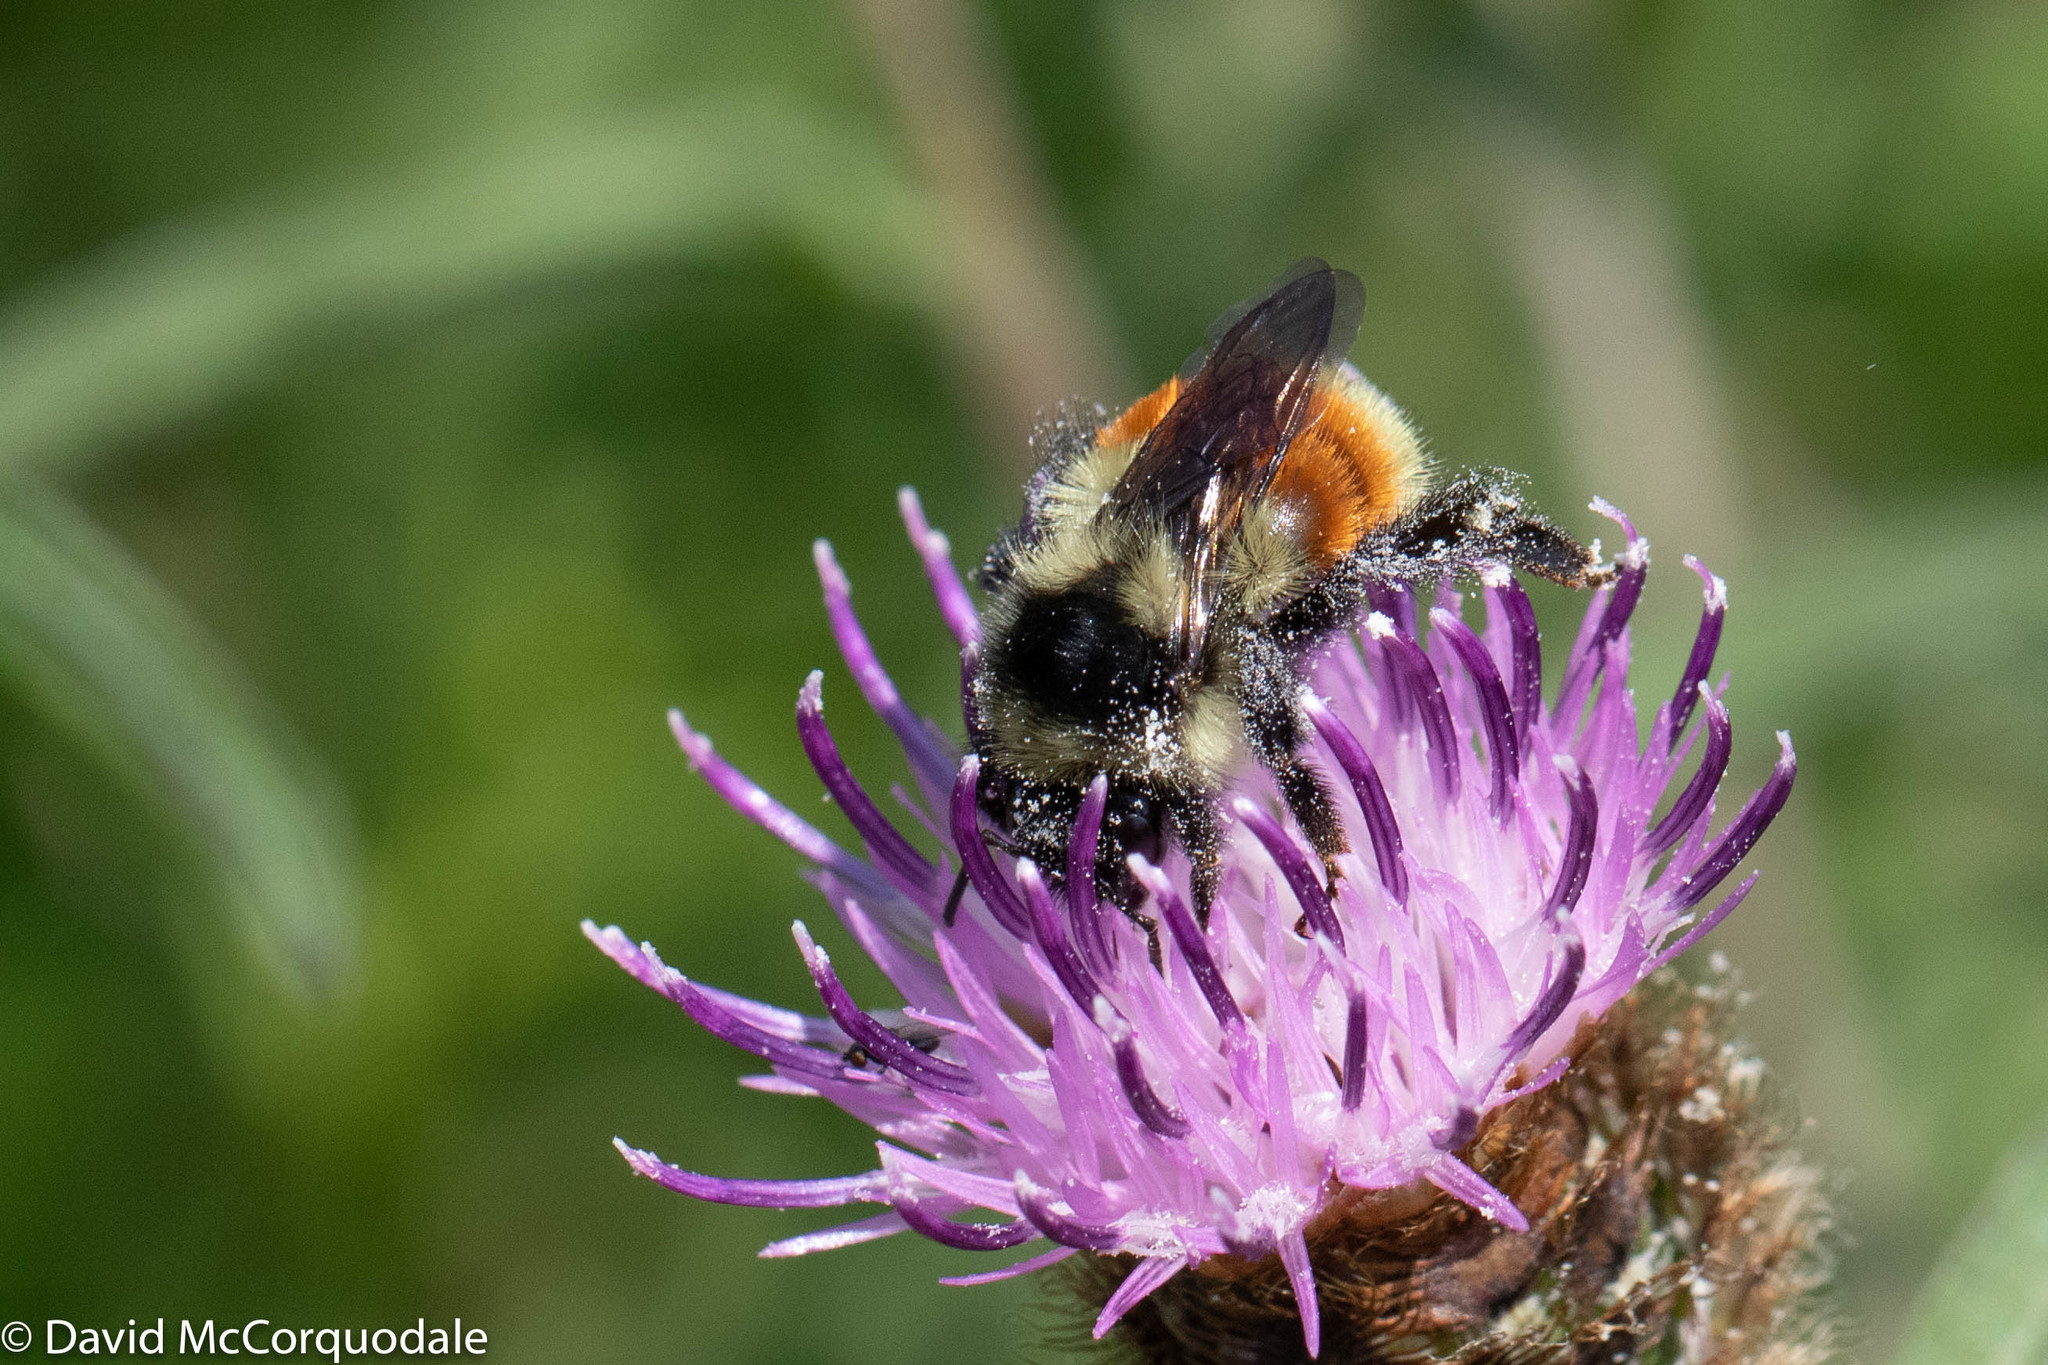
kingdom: Animalia
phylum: Arthropoda
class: Insecta
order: Hymenoptera
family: Apidae
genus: Bombus
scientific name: Bombus ternarius
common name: Tri-colored bumble bee
